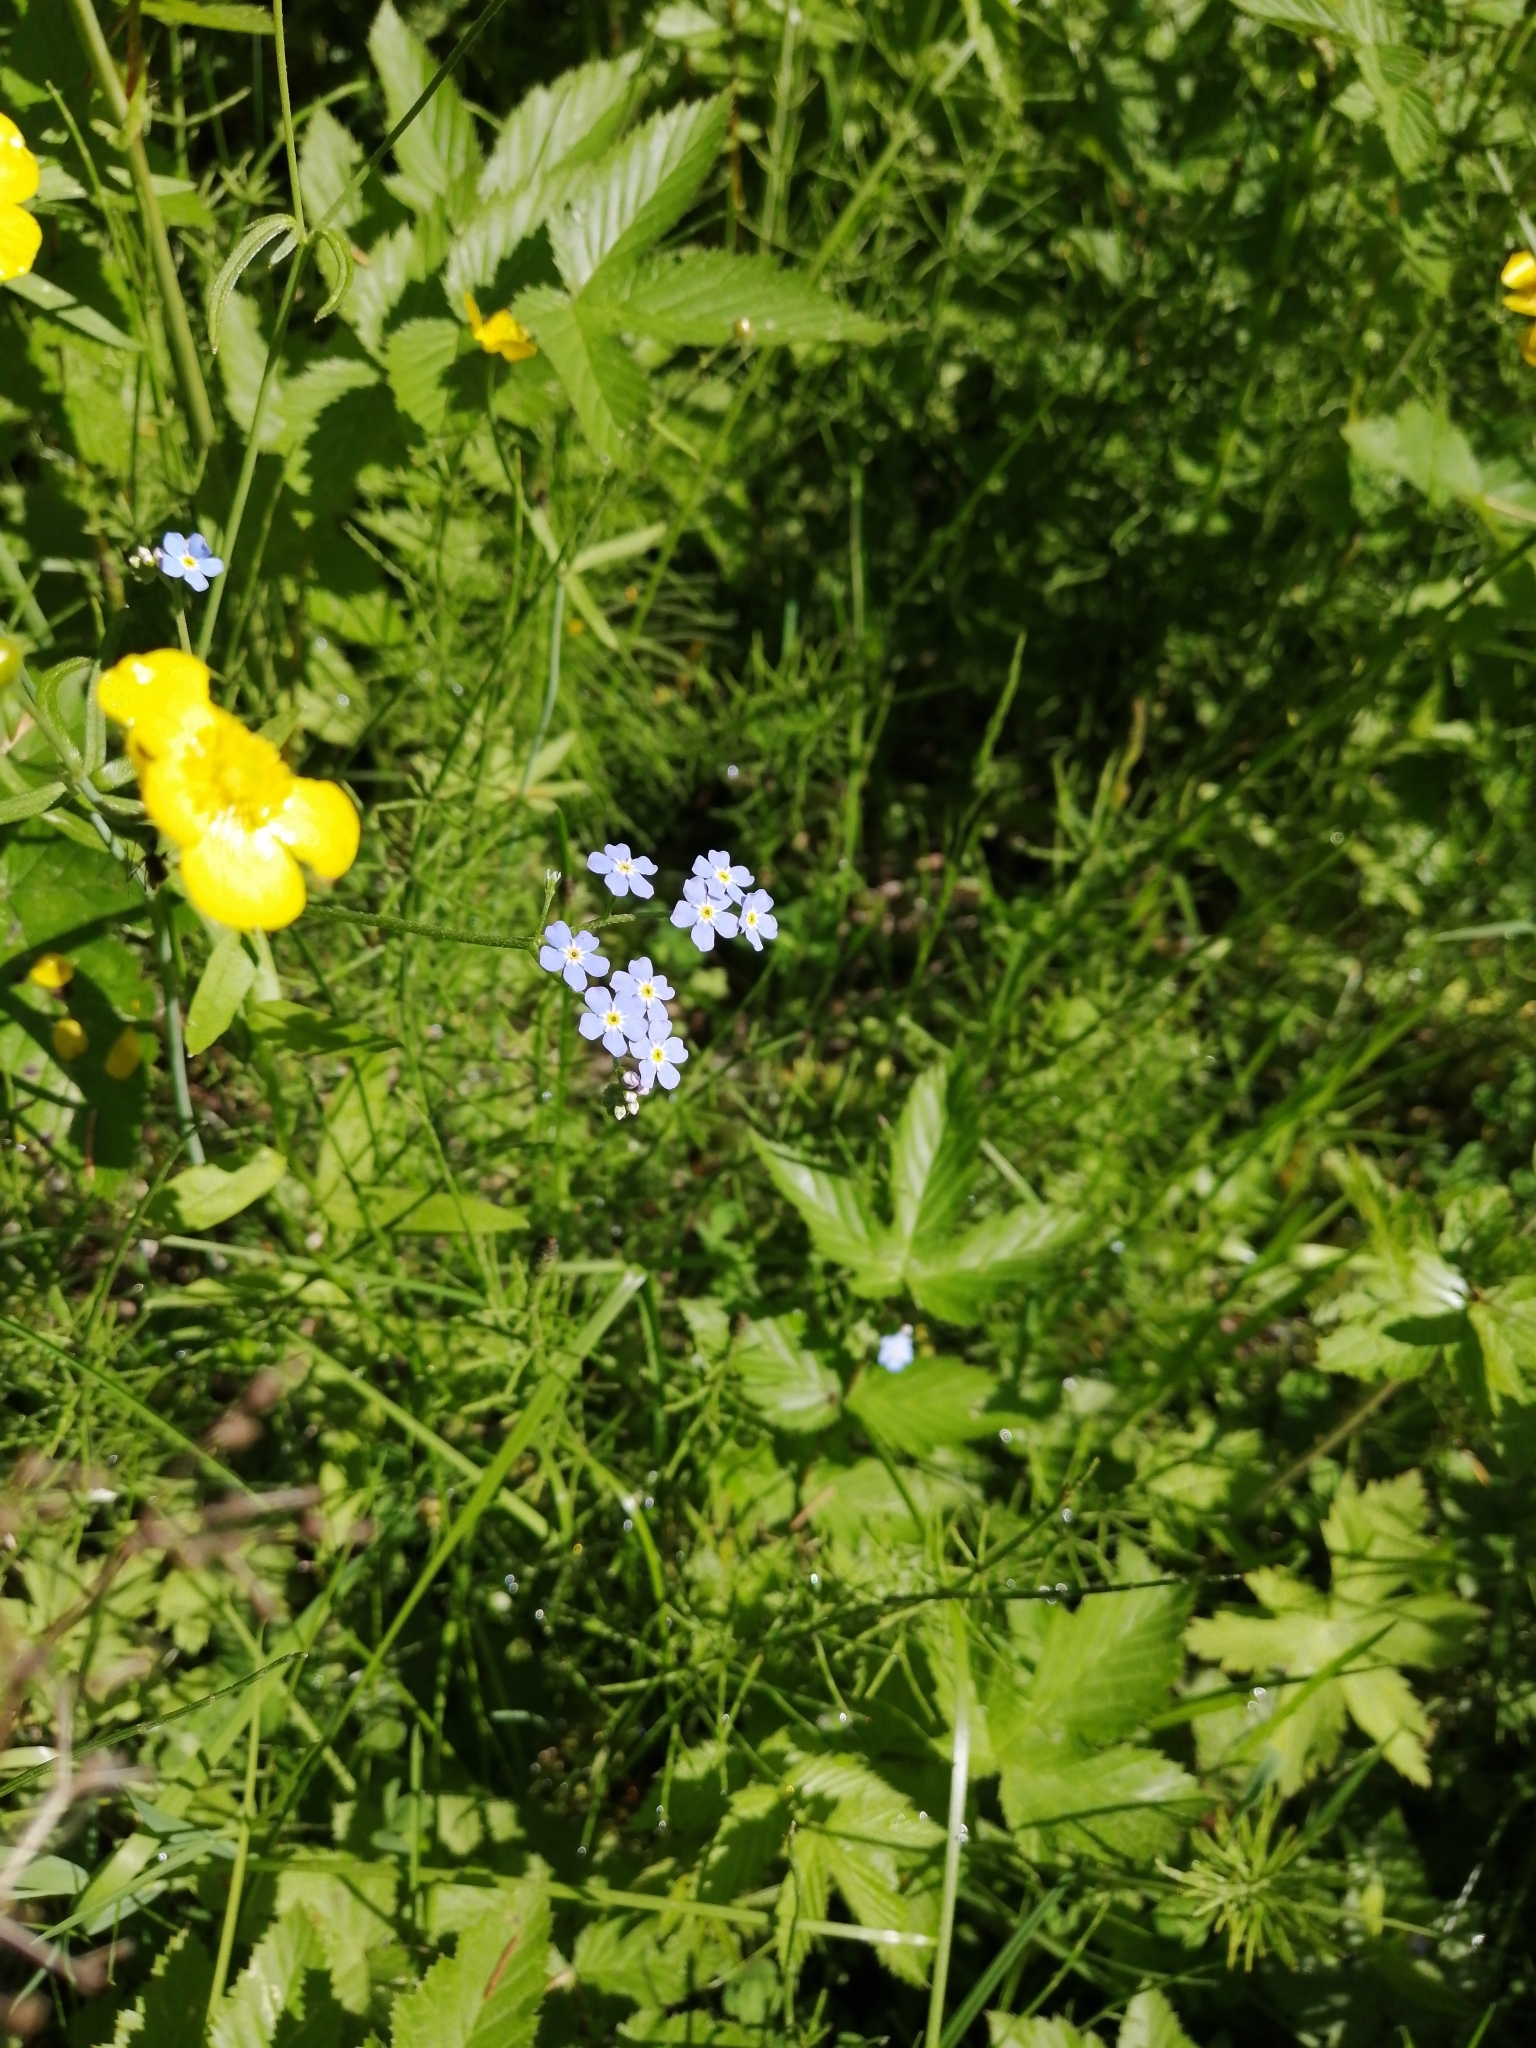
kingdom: Plantae
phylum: Tracheophyta
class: Magnoliopsida
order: Boraginales
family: Boraginaceae
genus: Myosotis
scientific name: Myosotis scorpioides
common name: Water forget-me-not
